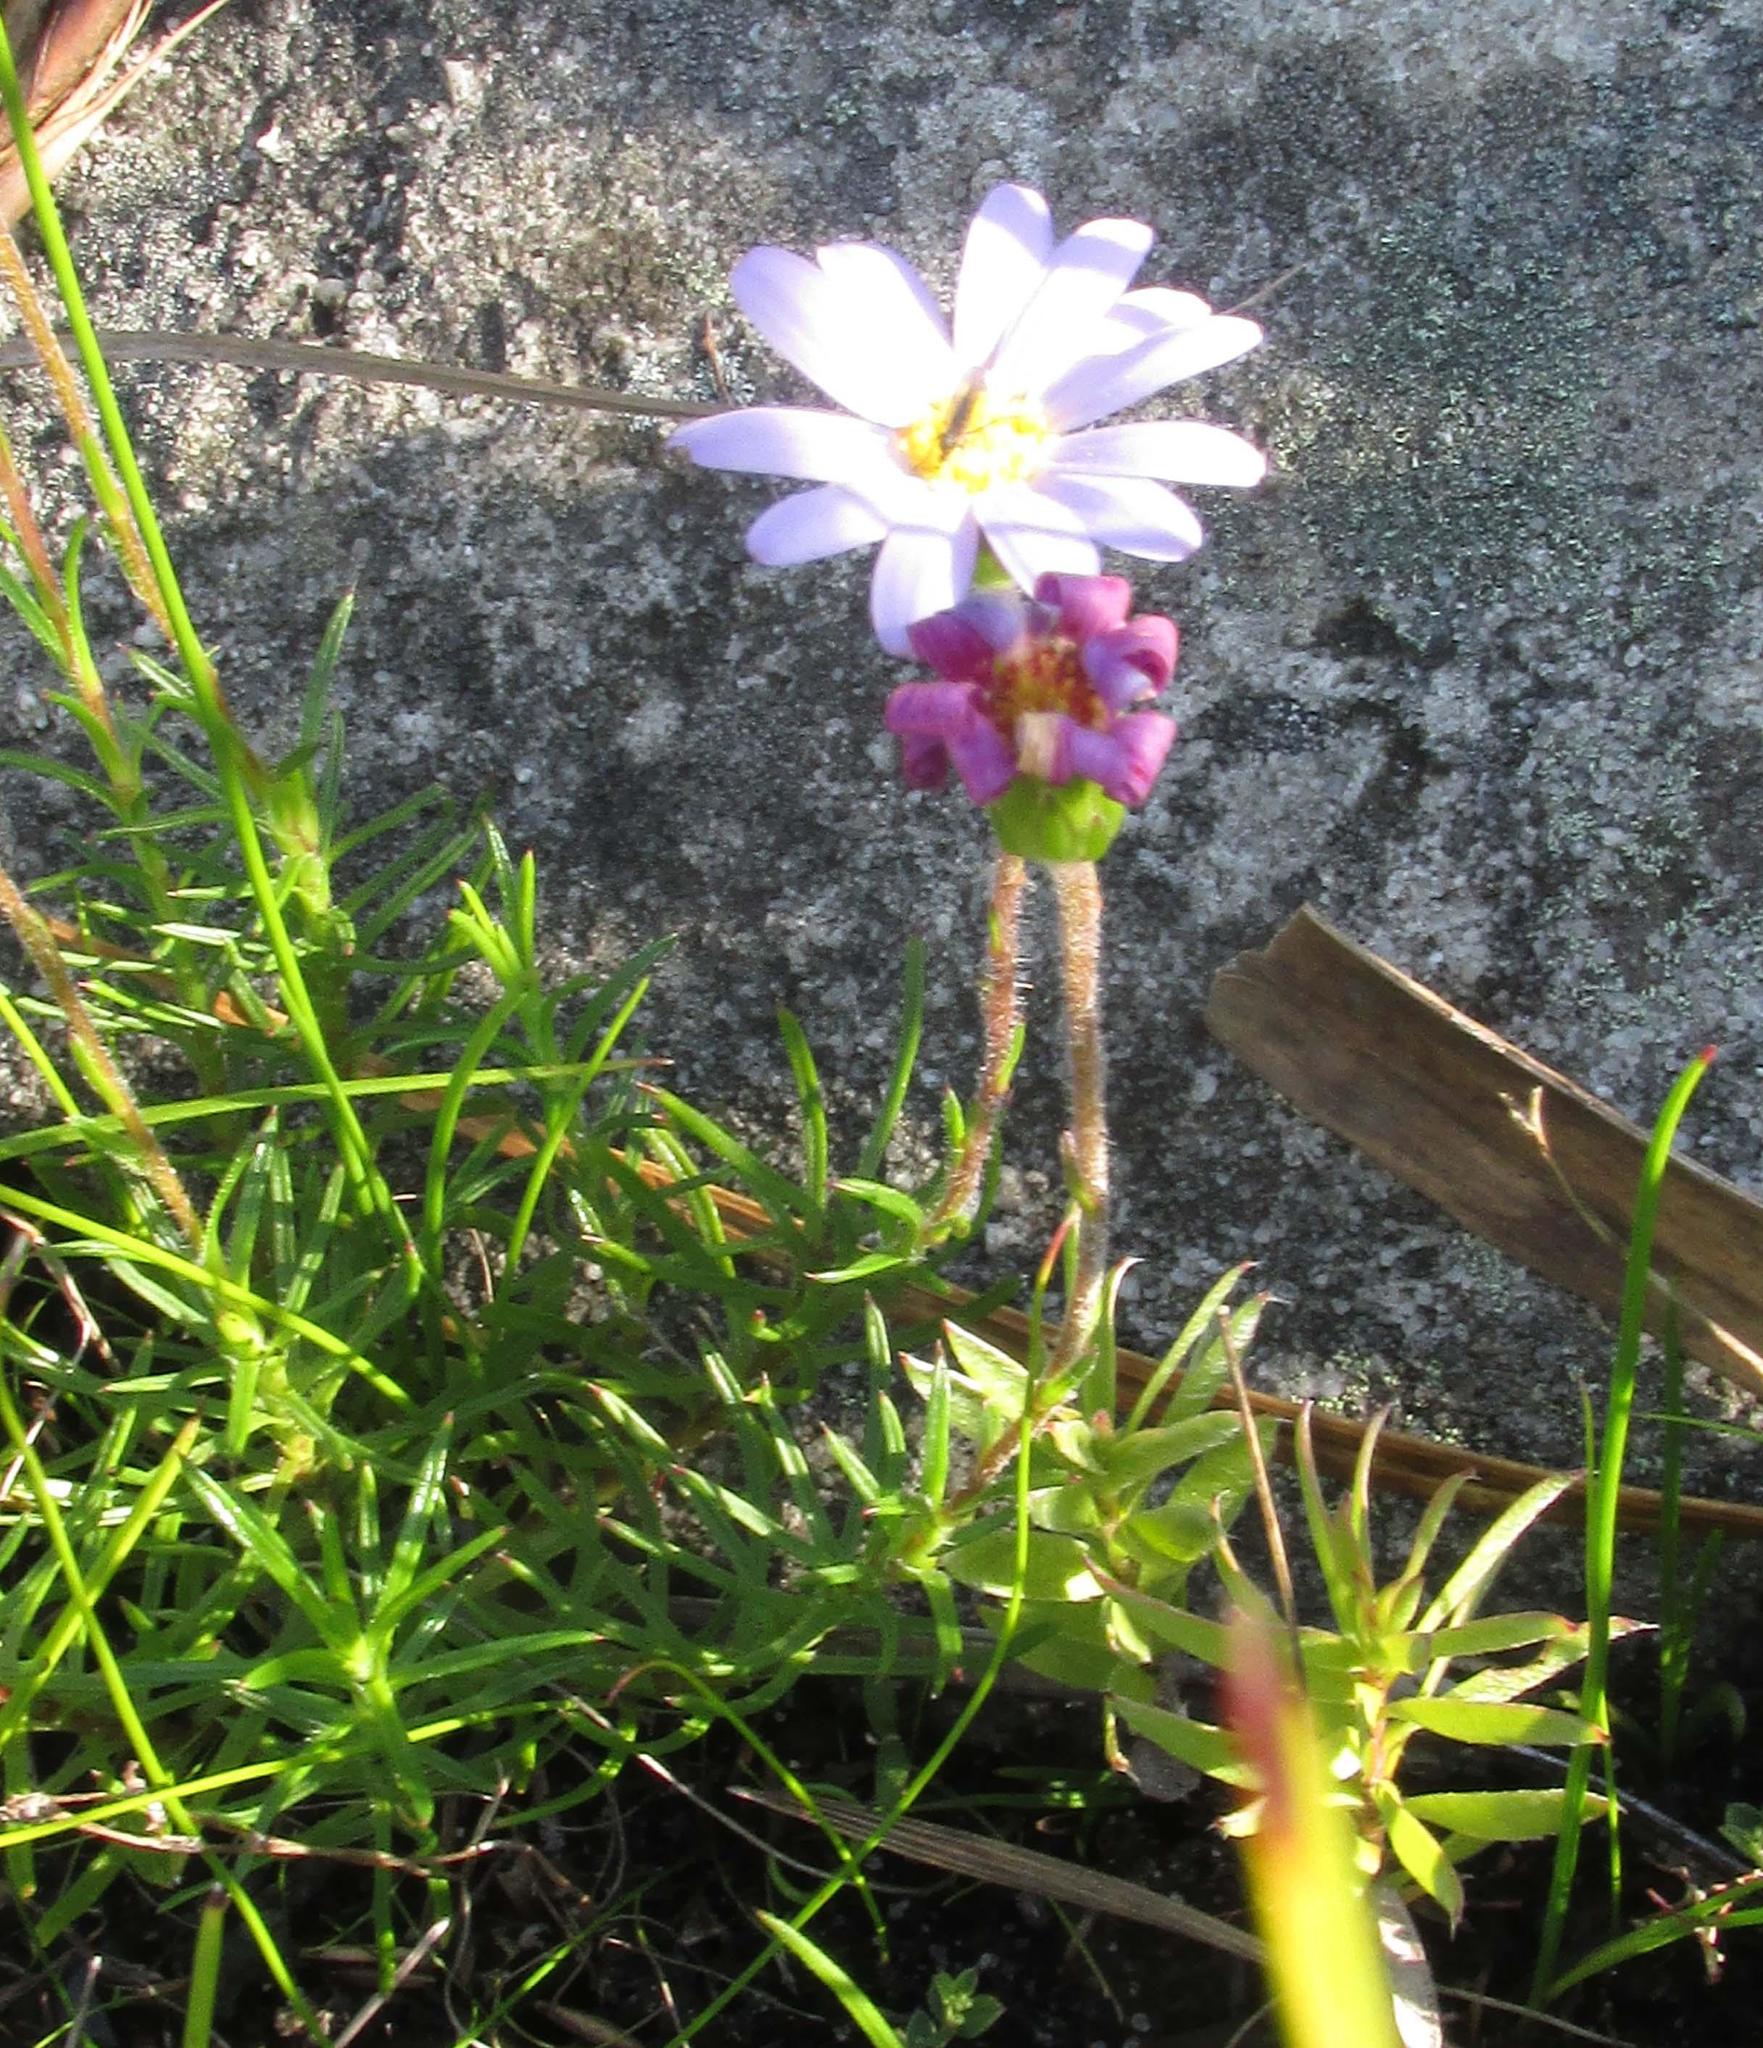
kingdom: Plantae
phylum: Tracheophyta
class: Magnoliopsida
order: Asterales
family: Asteraceae
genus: Zyrphelis
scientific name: Zyrphelis taxifolia
